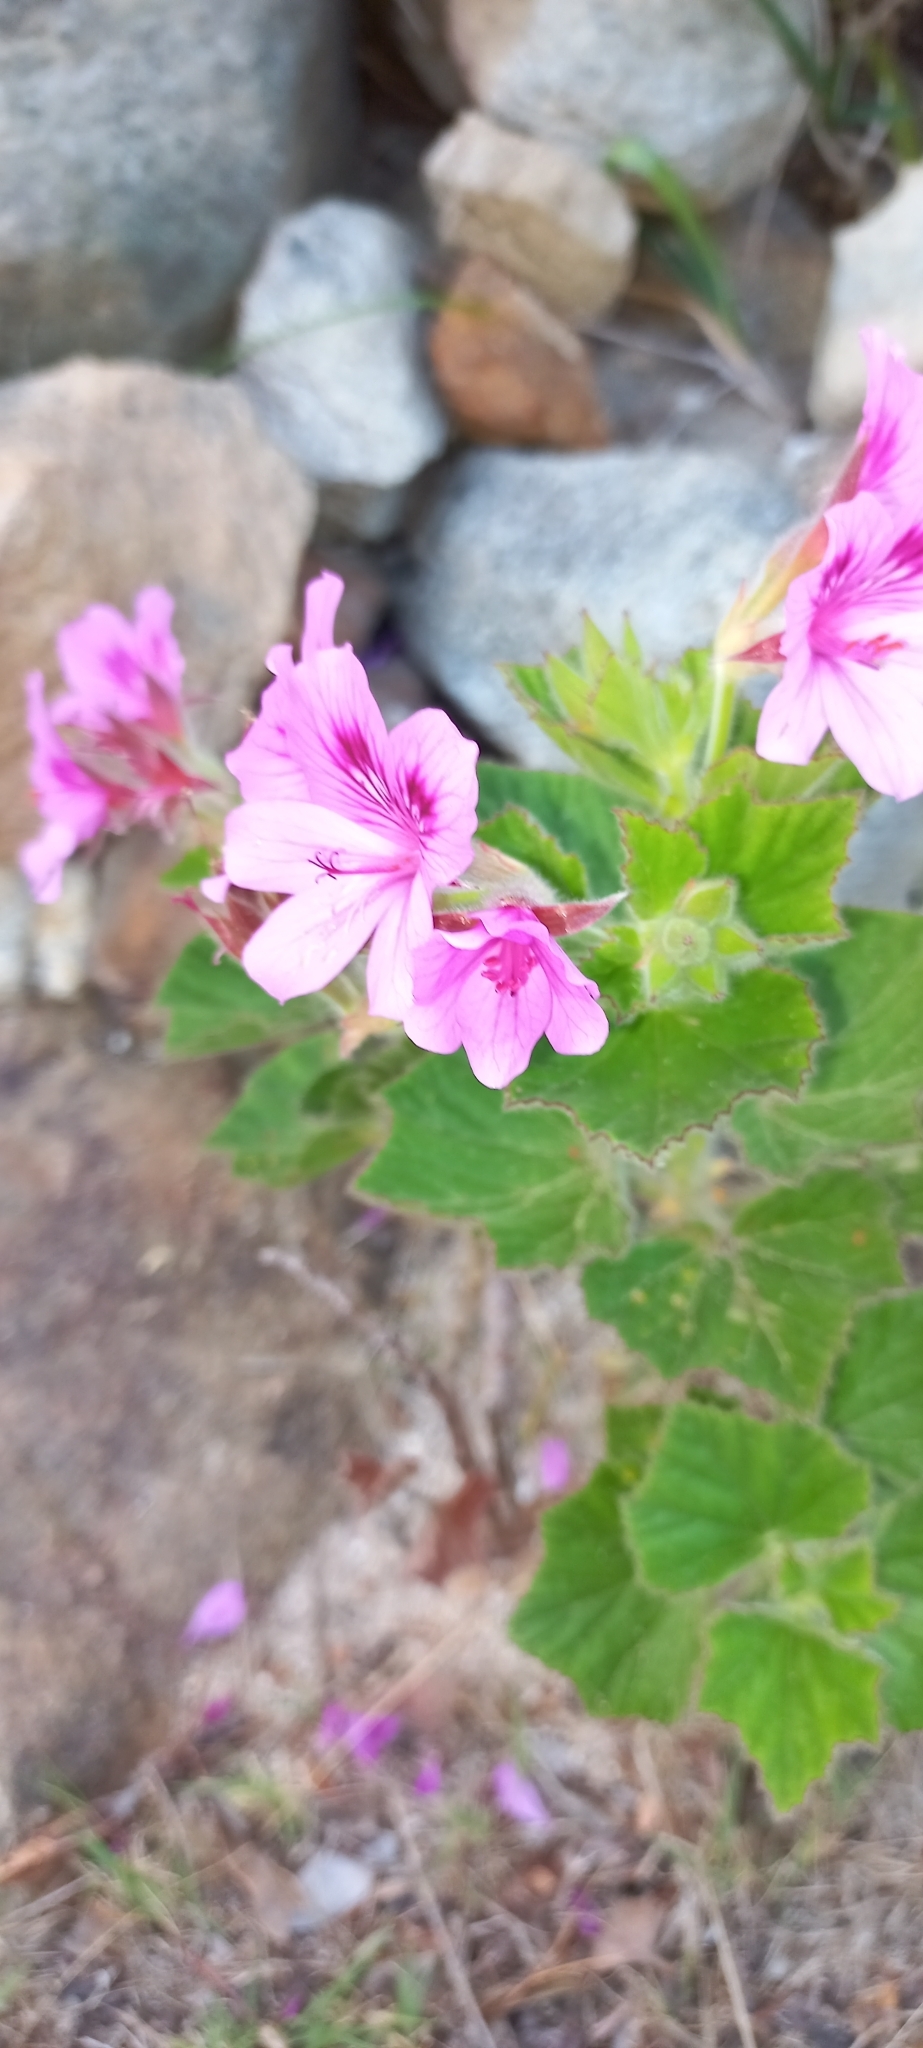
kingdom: Plantae
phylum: Tracheophyta
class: Magnoliopsida
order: Geraniales
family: Geraniaceae
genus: Pelargonium
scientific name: Pelargonium cucullatum
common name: Tree pelargonium
